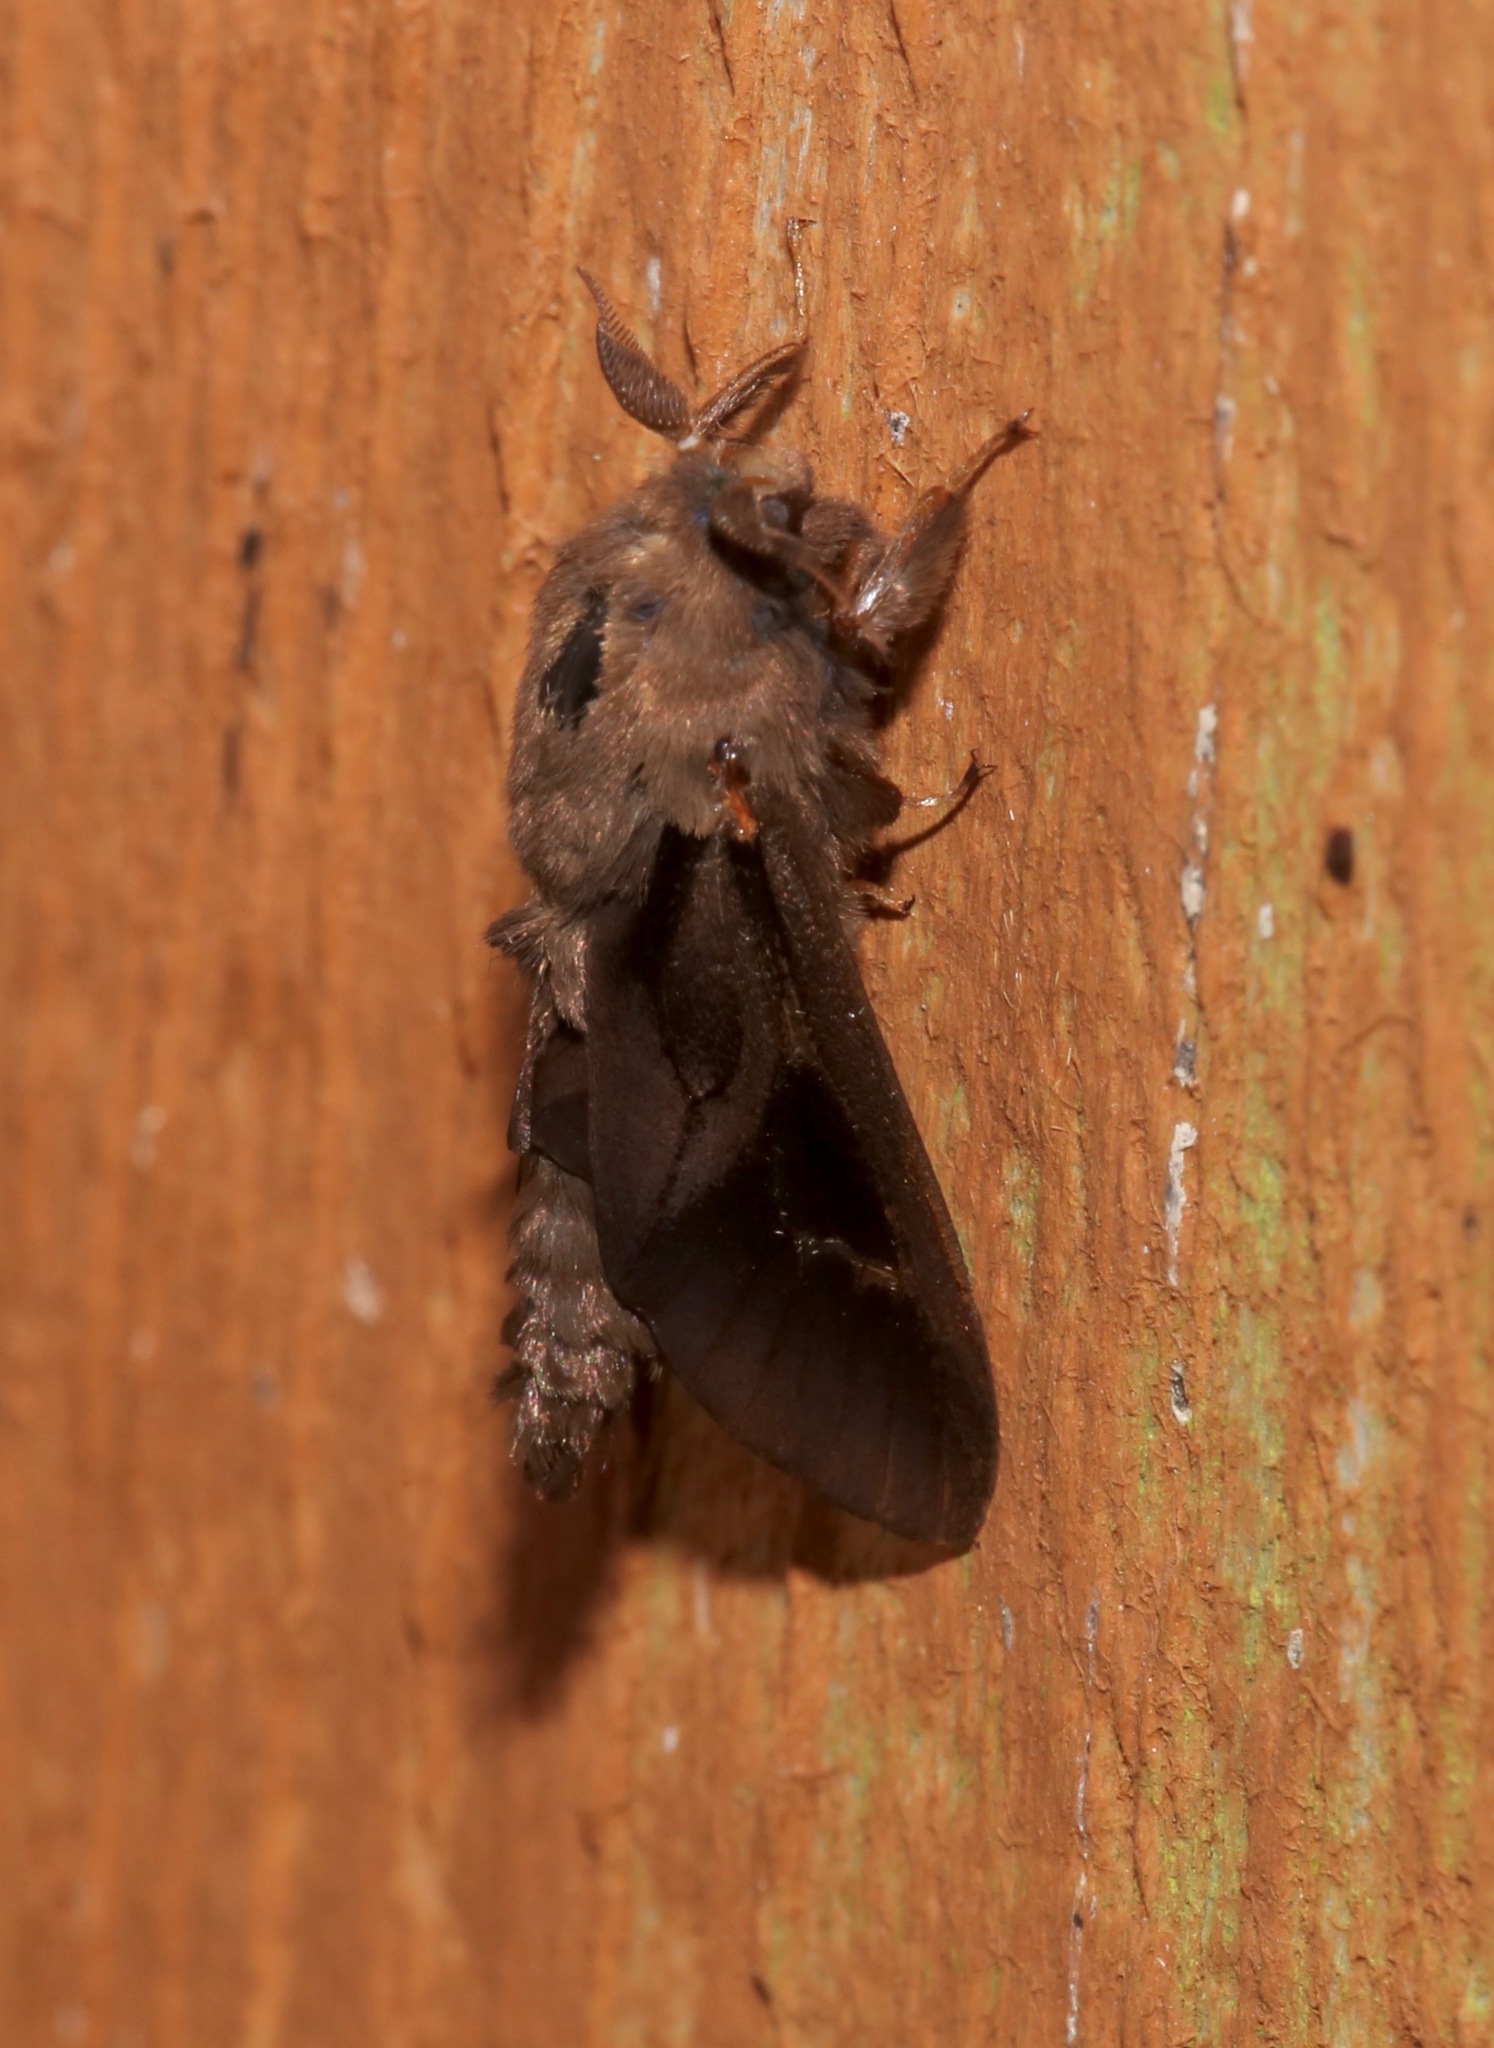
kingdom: Animalia
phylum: Arthropoda
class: Insecta
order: Lepidoptera
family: Psychidae
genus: Oiketicus
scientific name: Oiketicus
